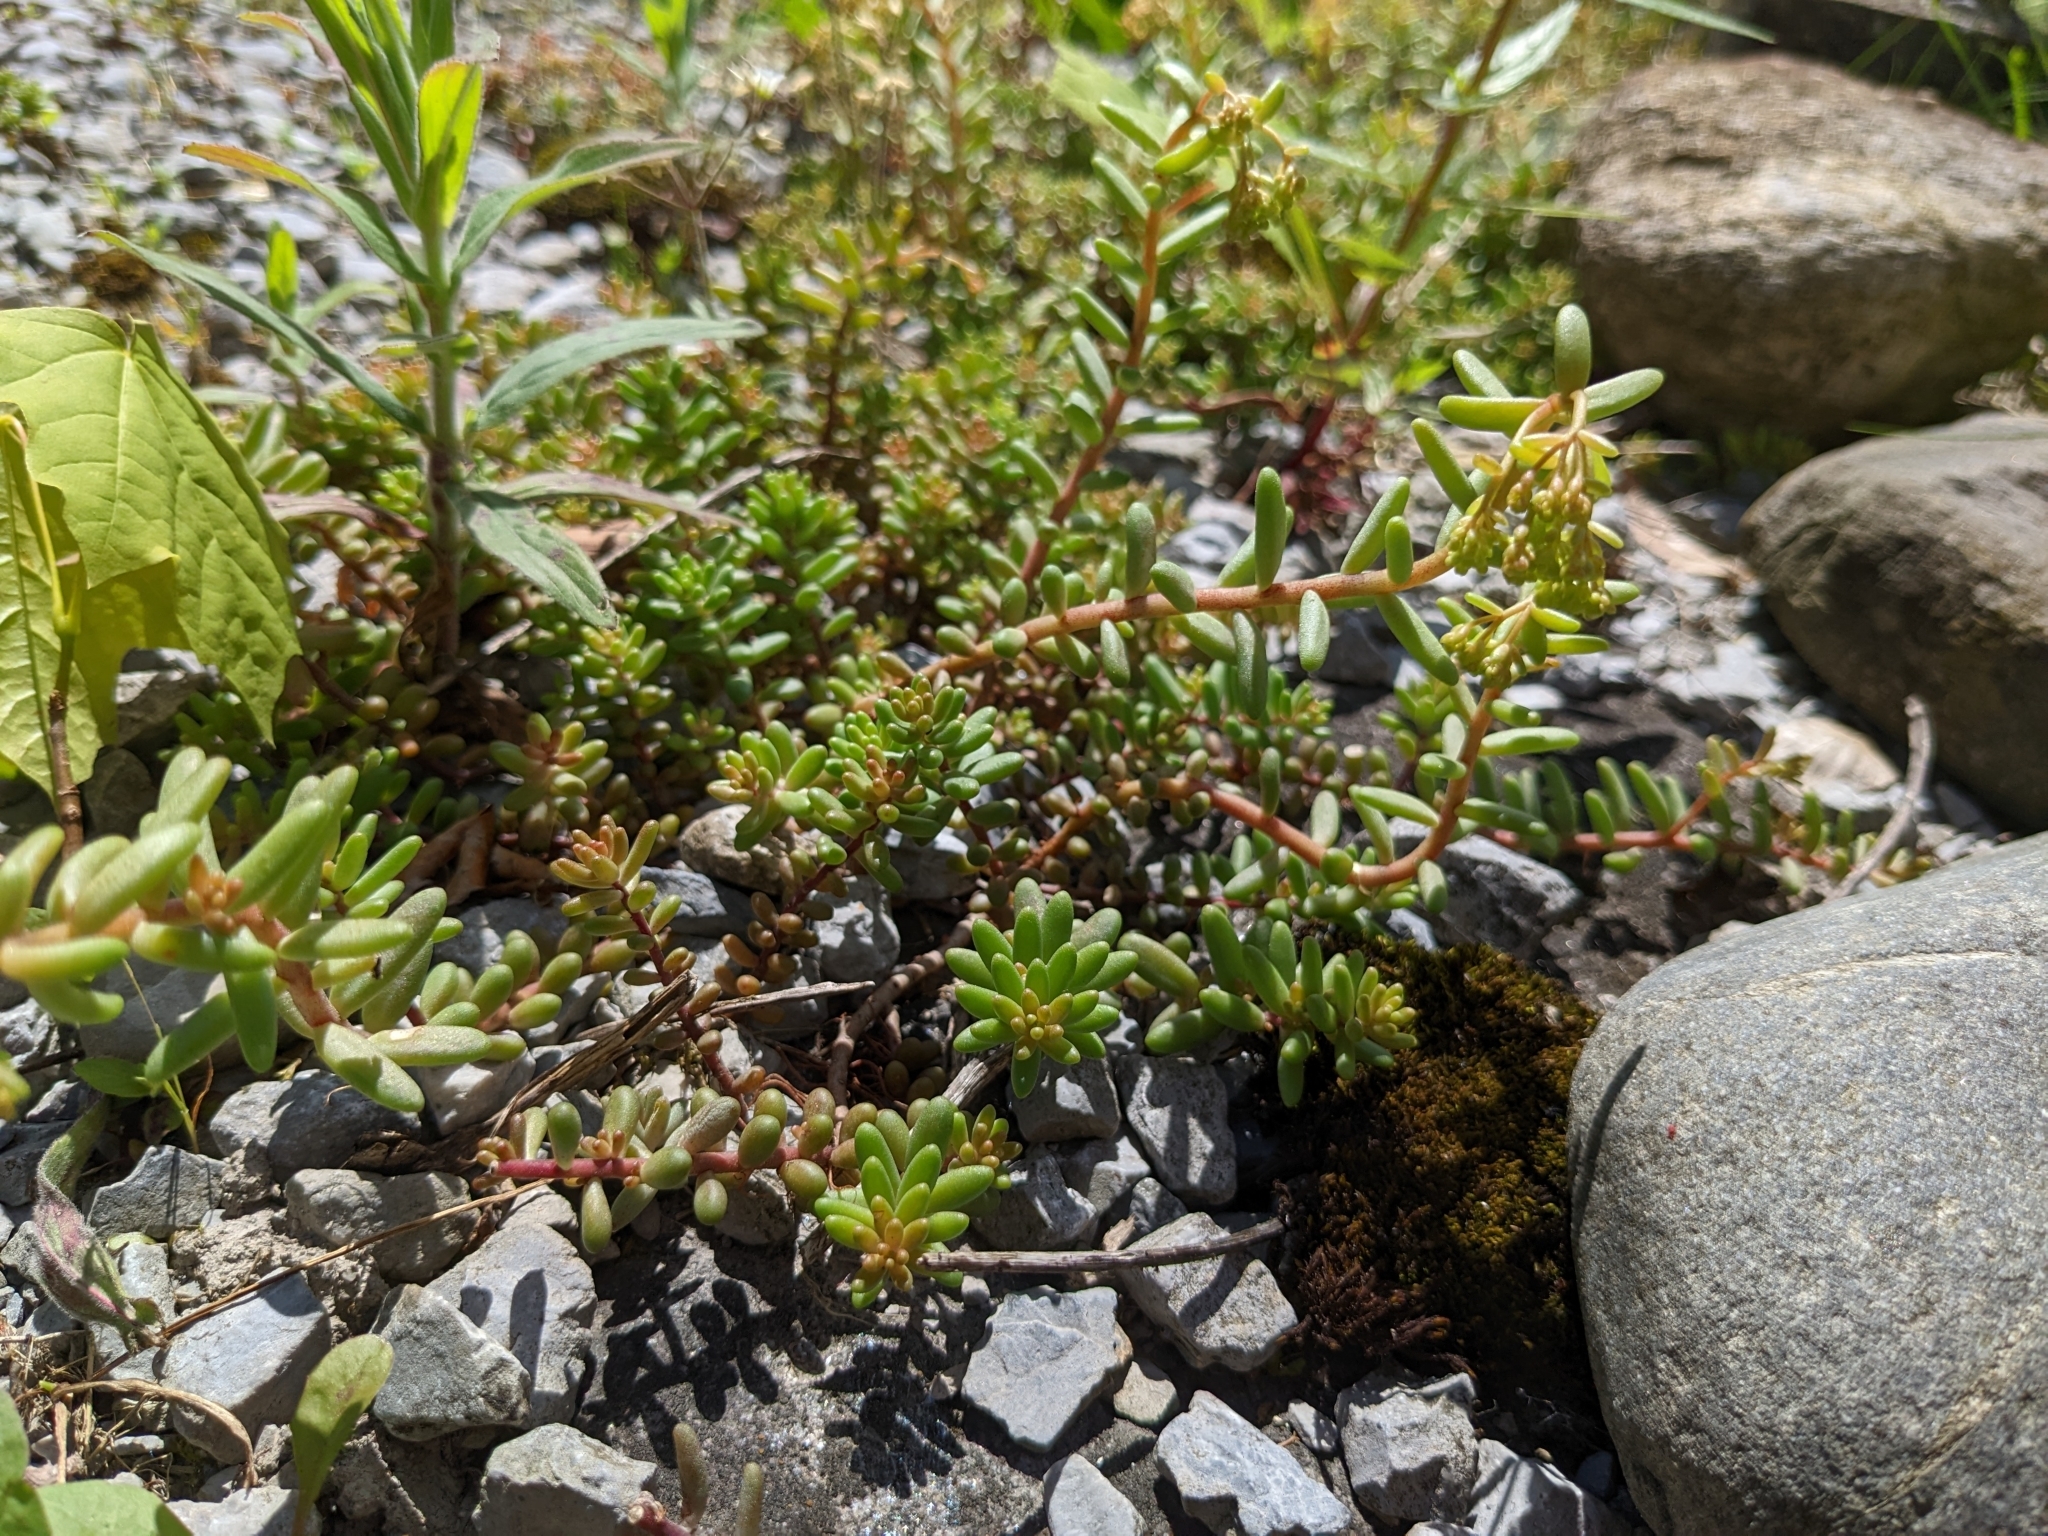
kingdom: Plantae
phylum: Tracheophyta
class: Magnoliopsida
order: Saxifragales
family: Crassulaceae
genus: Sedum
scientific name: Sedum album
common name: White stonecrop
